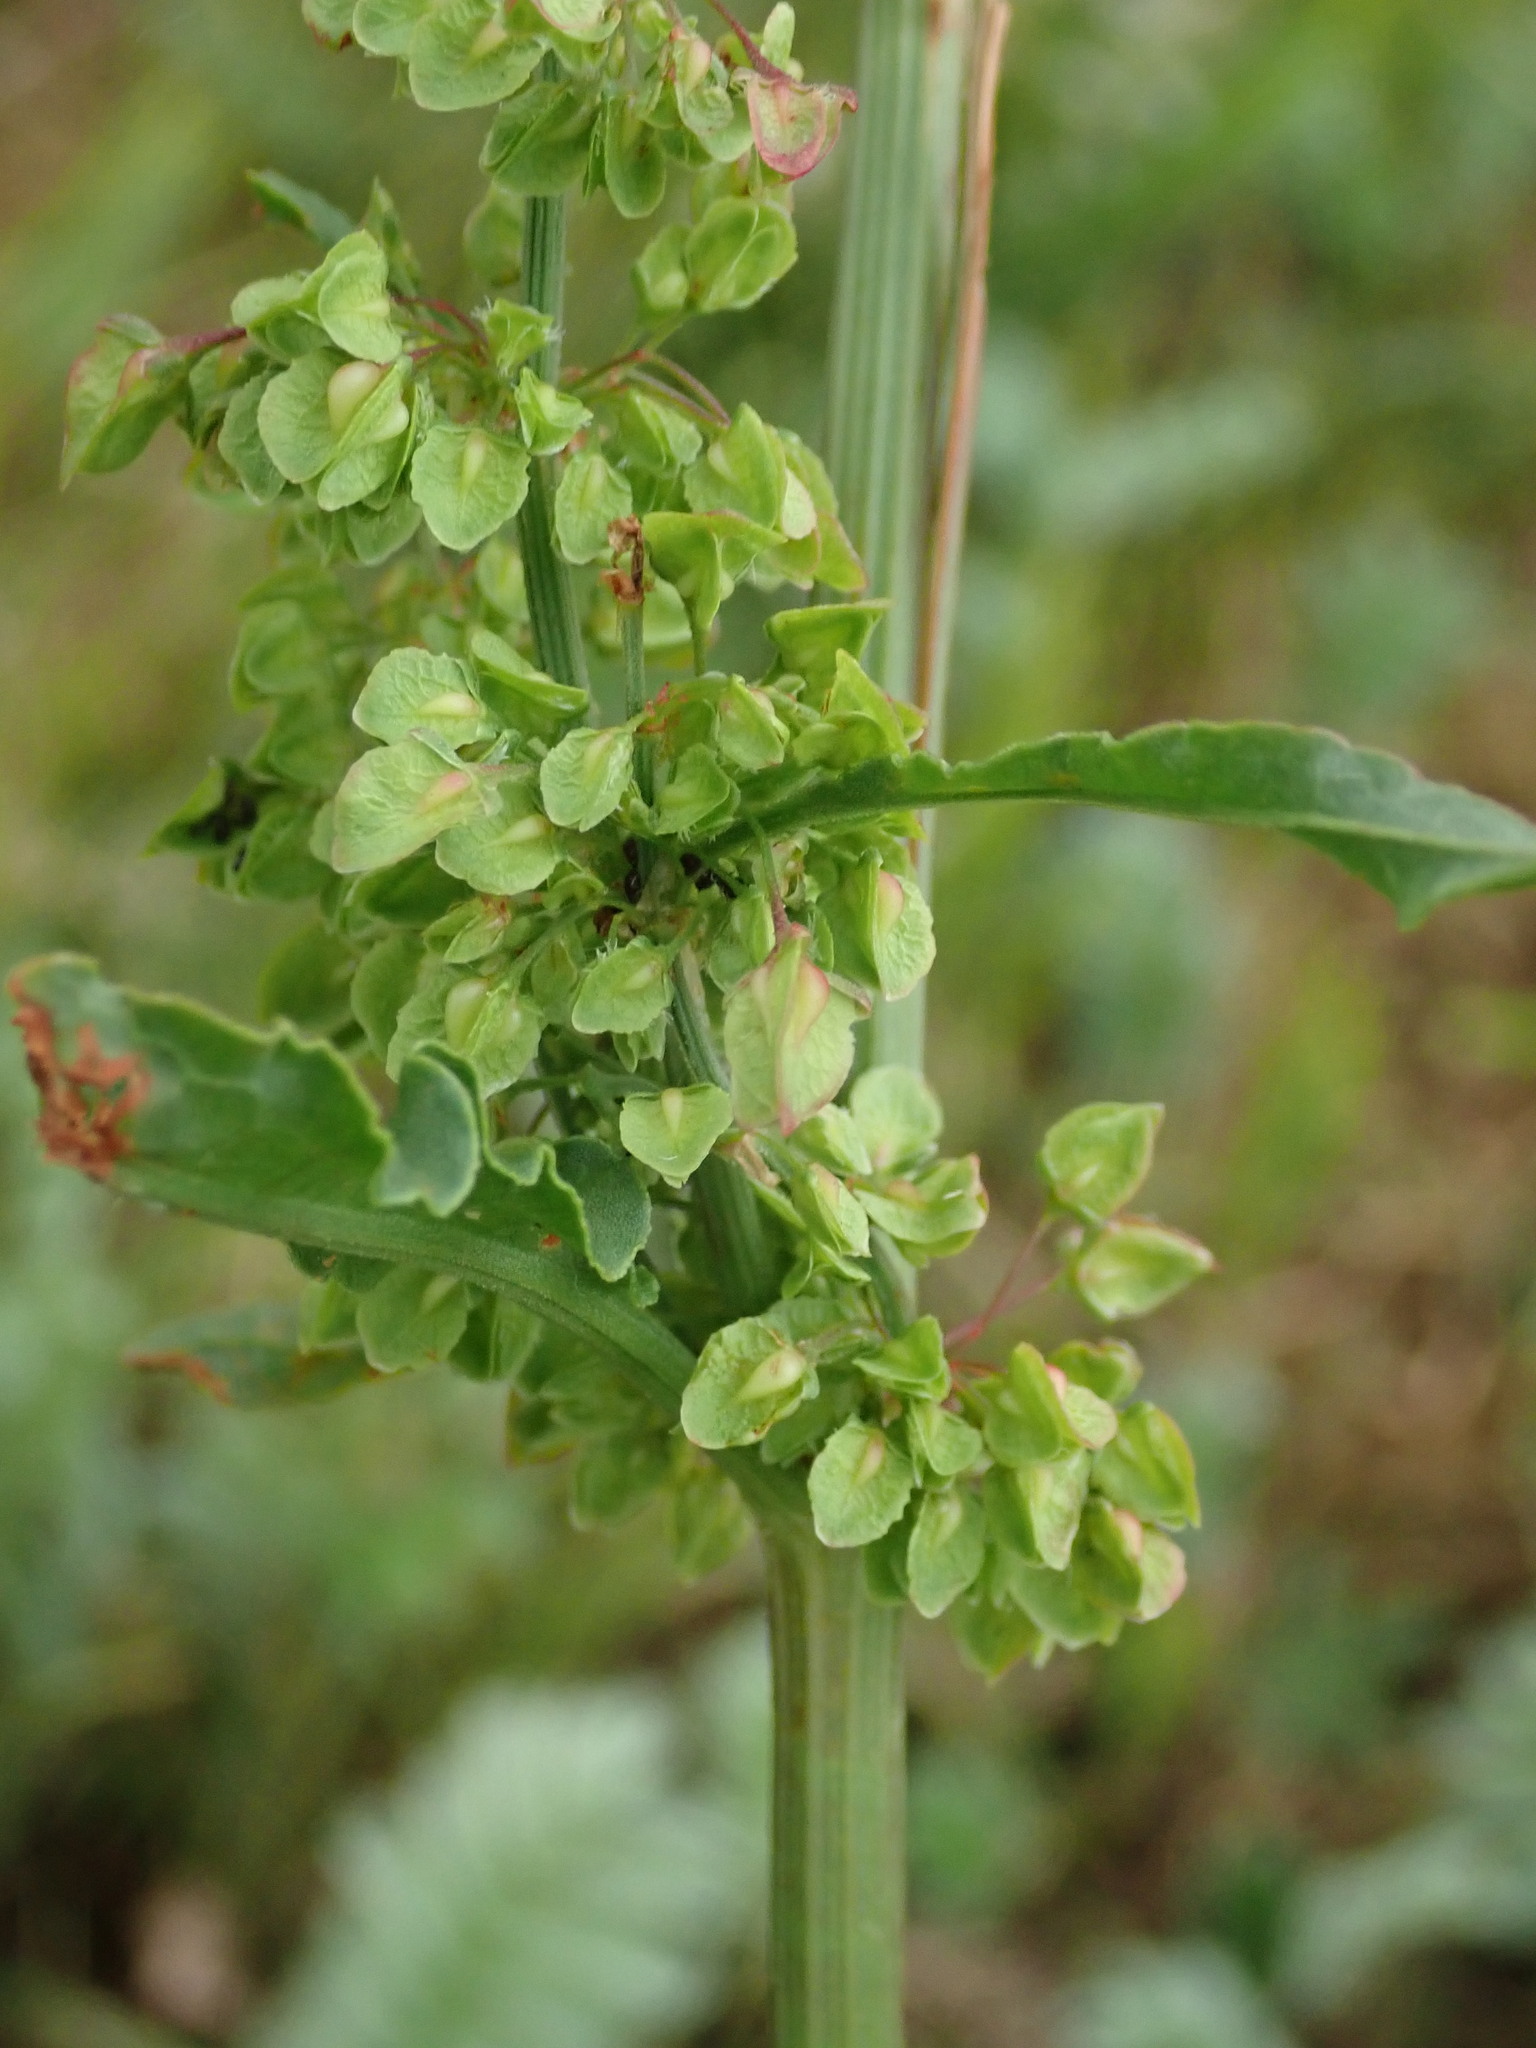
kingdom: Plantae
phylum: Tracheophyta
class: Magnoliopsida
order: Caryophyllales
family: Polygonaceae
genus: Rumex
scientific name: Rumex crispus
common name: Curled dock
